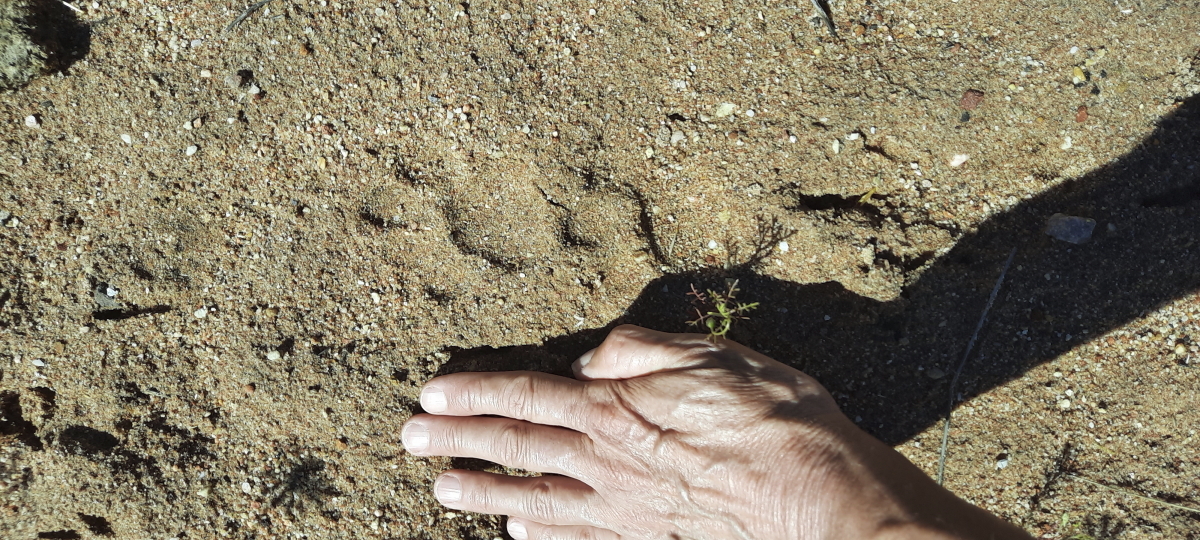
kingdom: Animalia
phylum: Chordata
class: Mammalia
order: Carnivora
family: Felidae
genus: Panthera
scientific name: Panthera pardus
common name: Leopard
